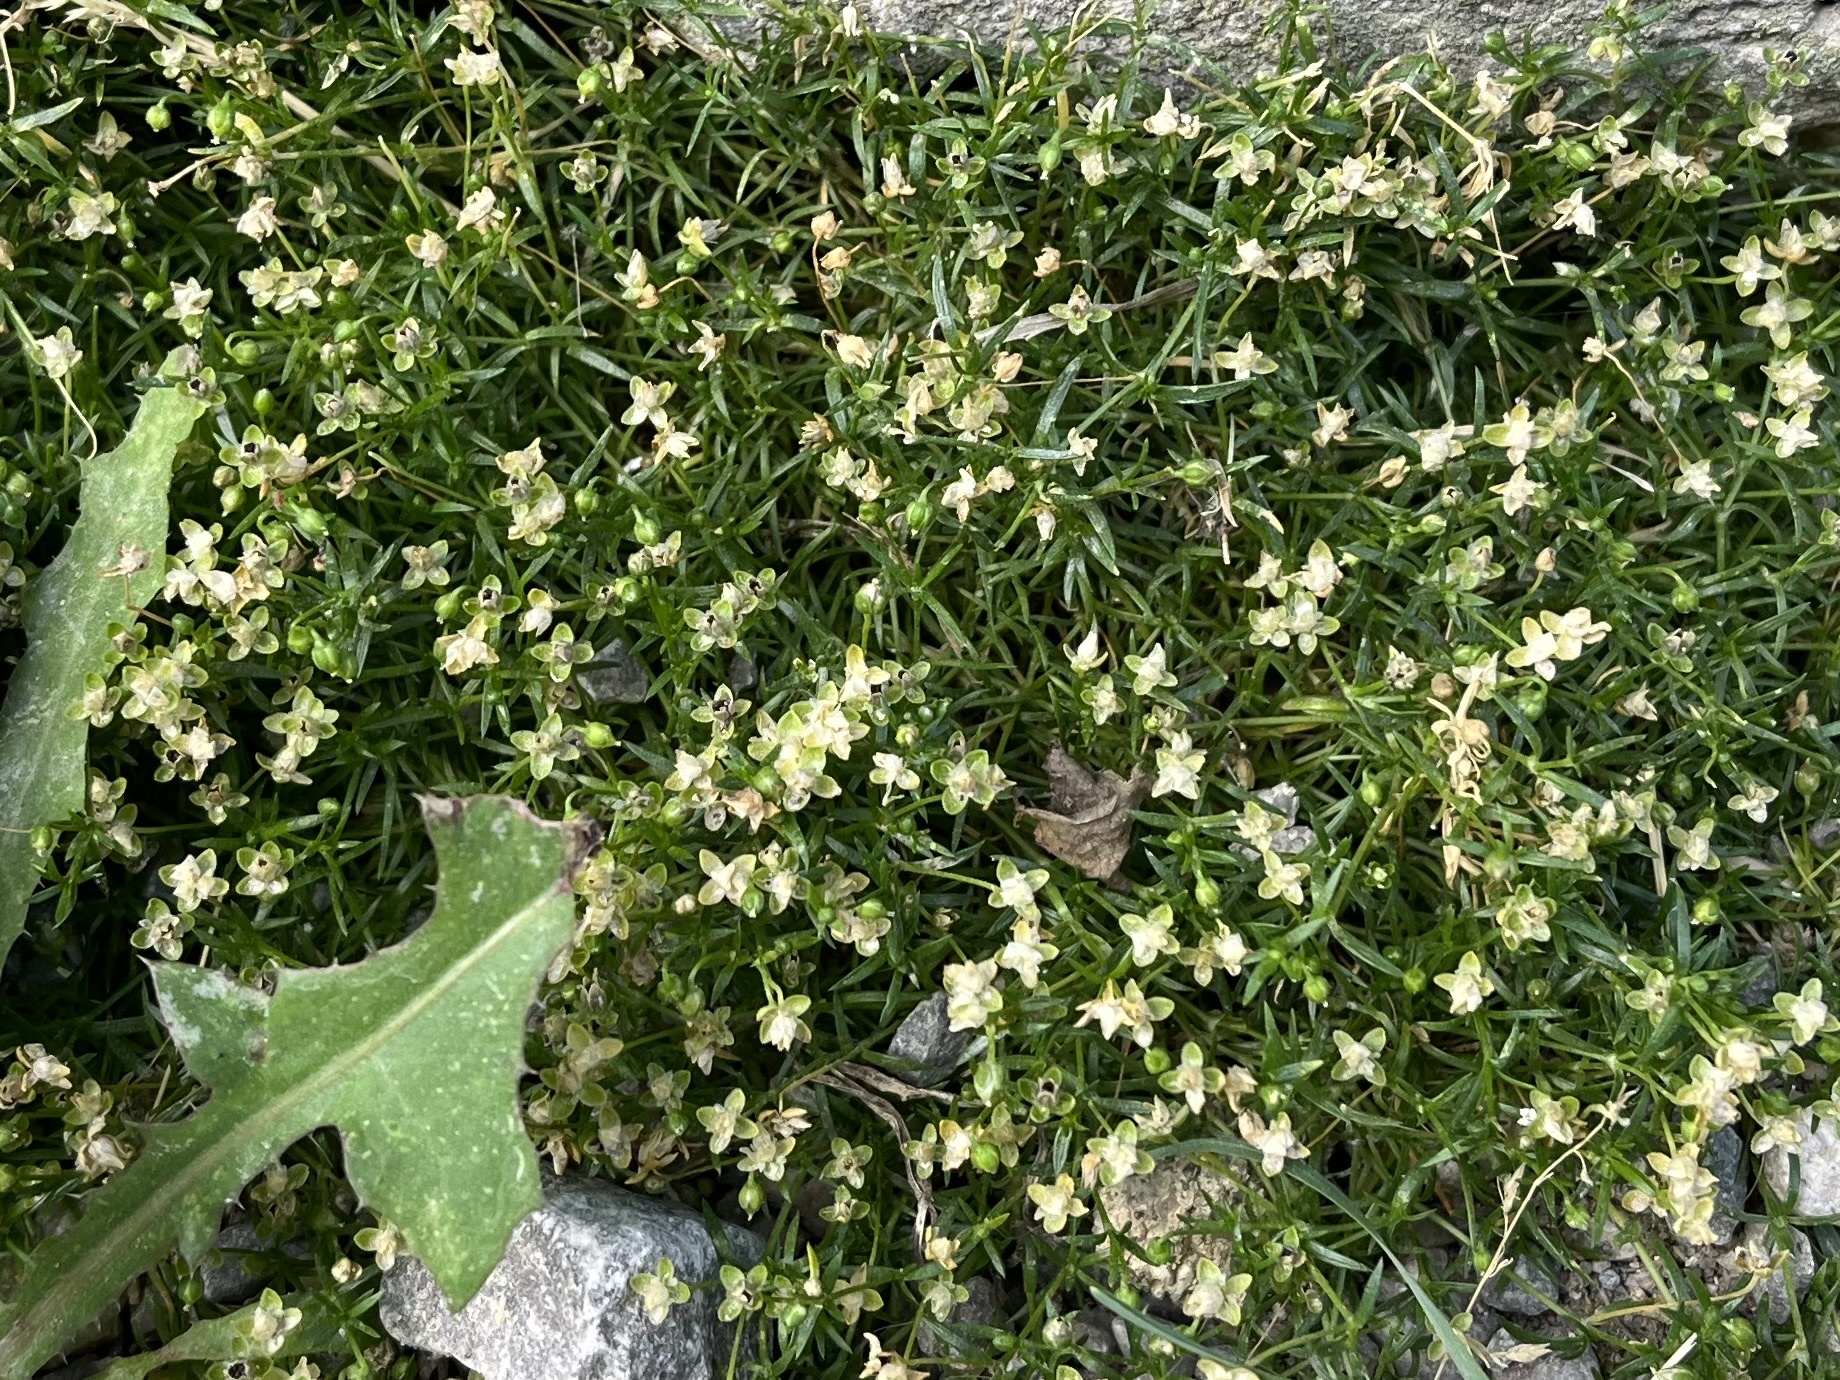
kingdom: Plantae
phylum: Tracheophyta
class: Magnoliopsida
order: Caryophyllales
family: Caryophyllaceae
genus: Sagina
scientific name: Sagina procumbens
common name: Procumbent pearlwort
